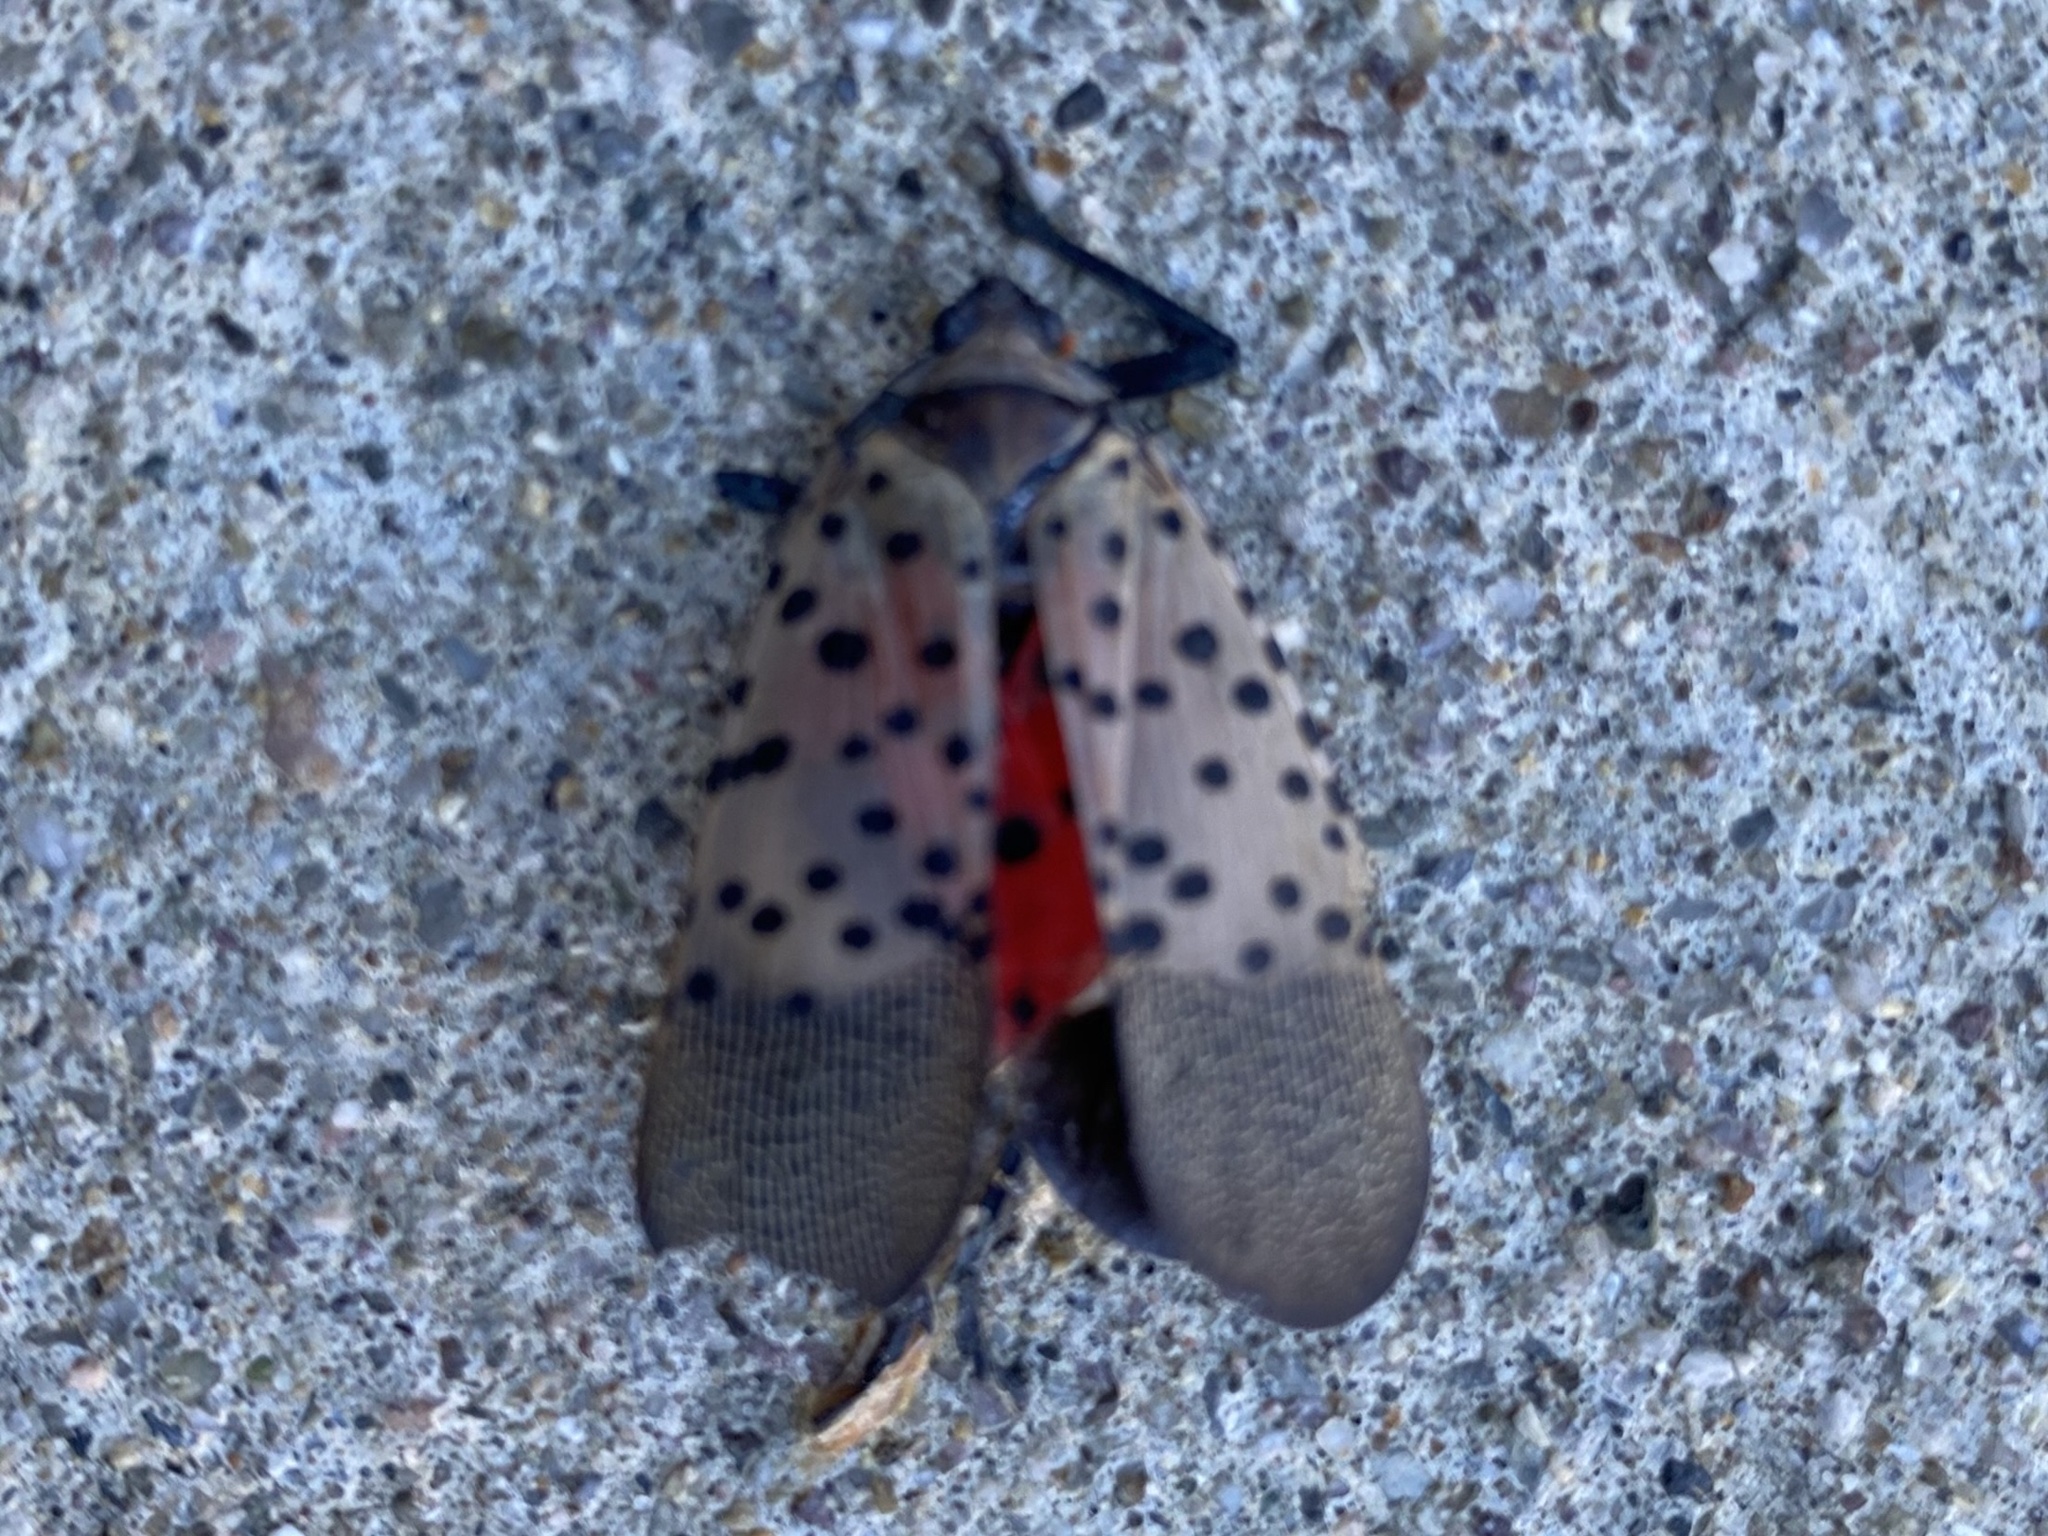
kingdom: Animalia
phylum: Arthropoda
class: Insecta
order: Hemiptera
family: Fulgoridae
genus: Lycorma
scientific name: Lycorma delicatula
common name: Spotted lanternfly
